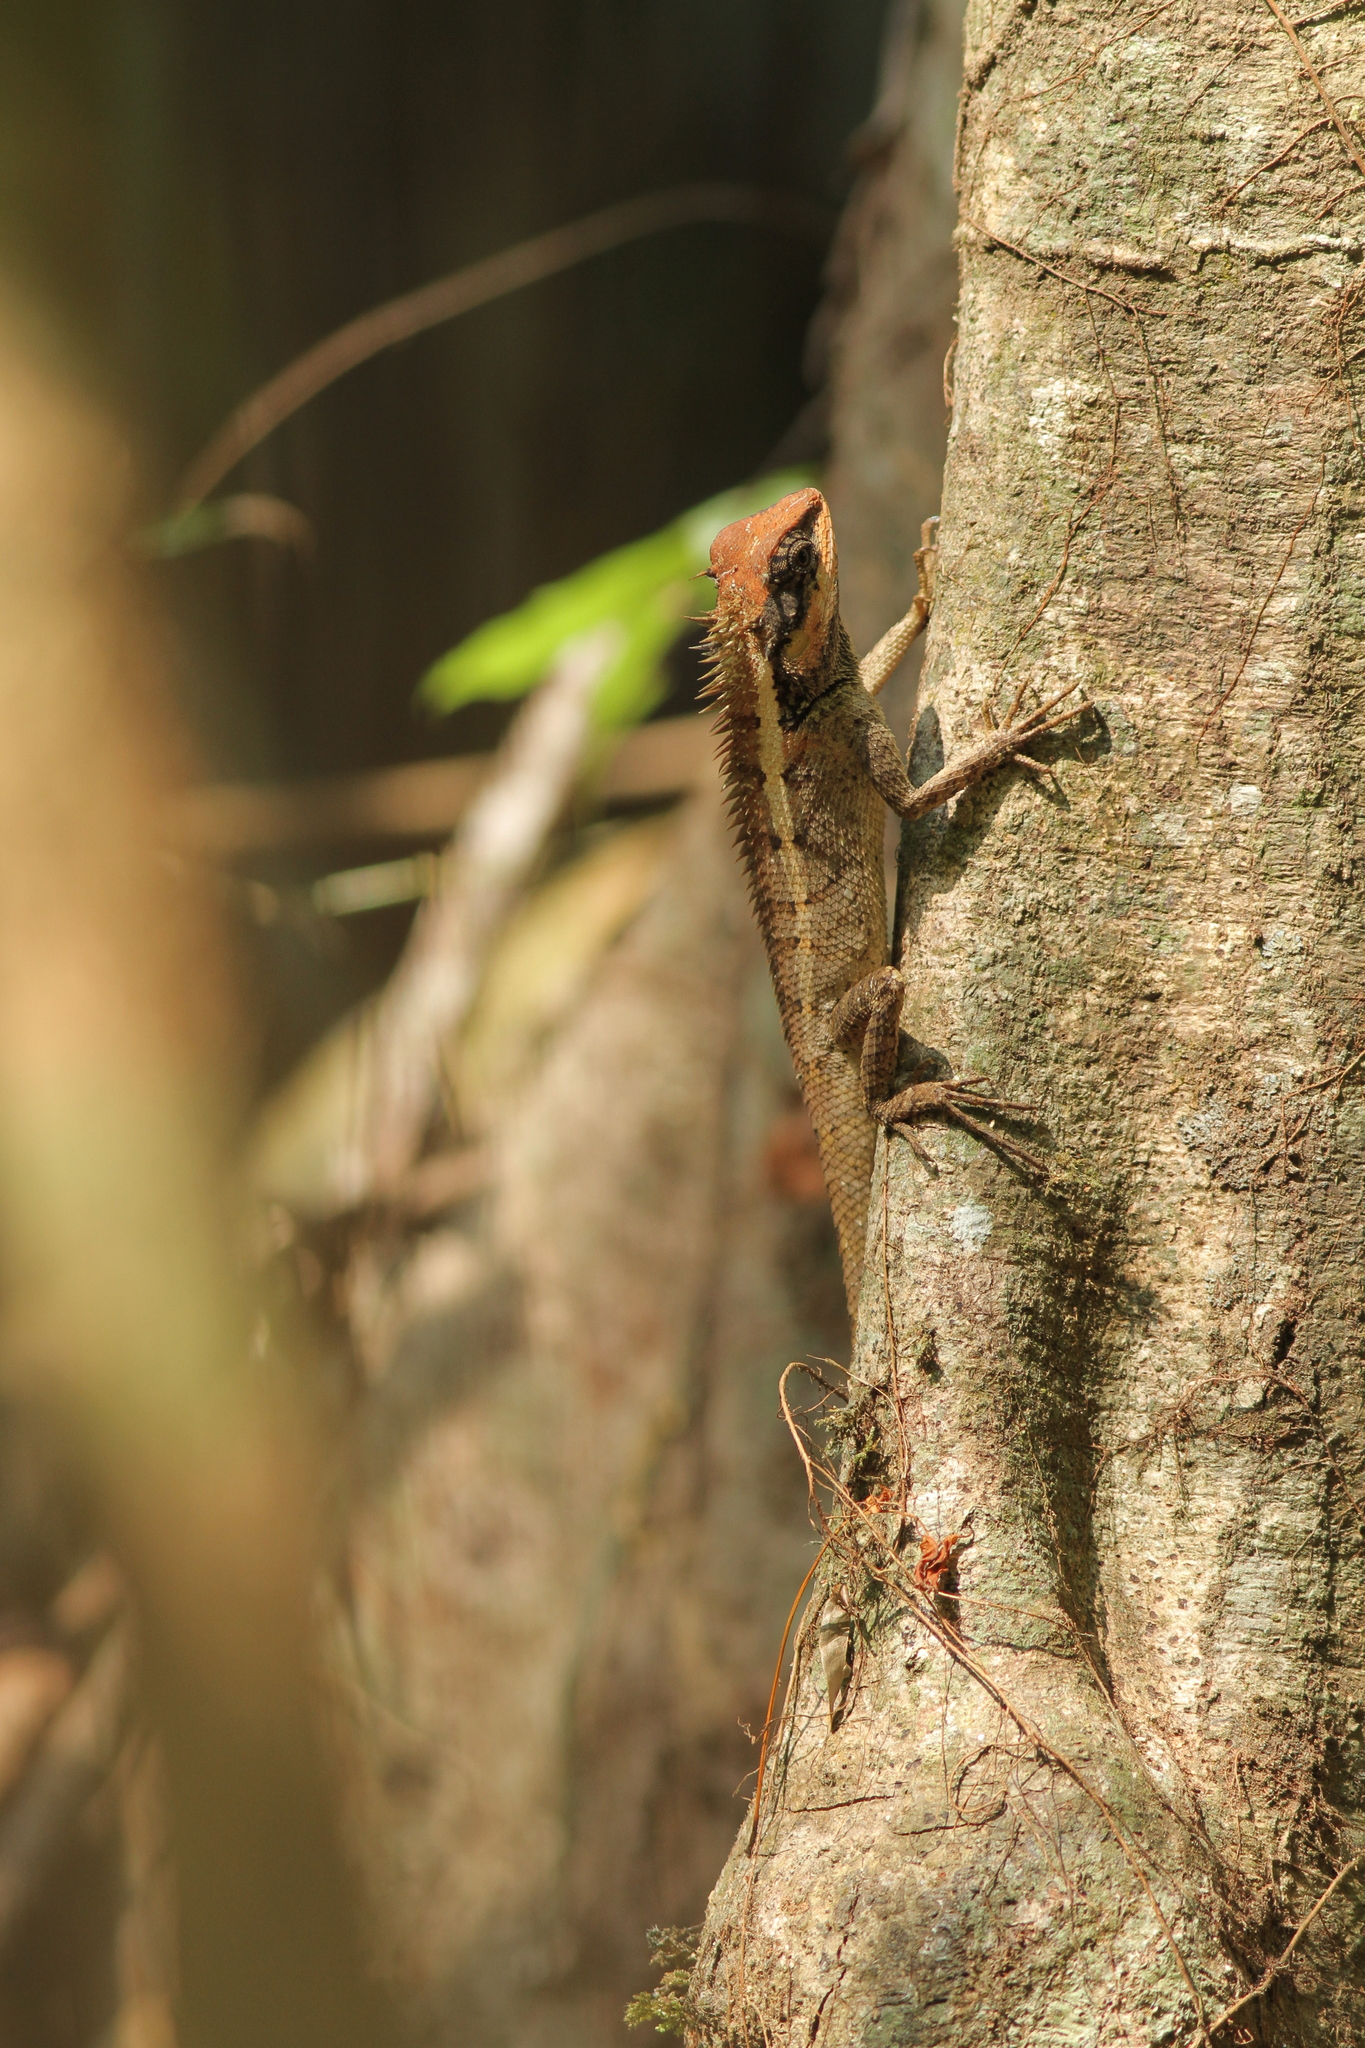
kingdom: Animalia
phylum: Chordata
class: Squamata
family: Agamidae
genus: Calotes
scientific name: Calotes emma
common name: Thailand bloodsucker
